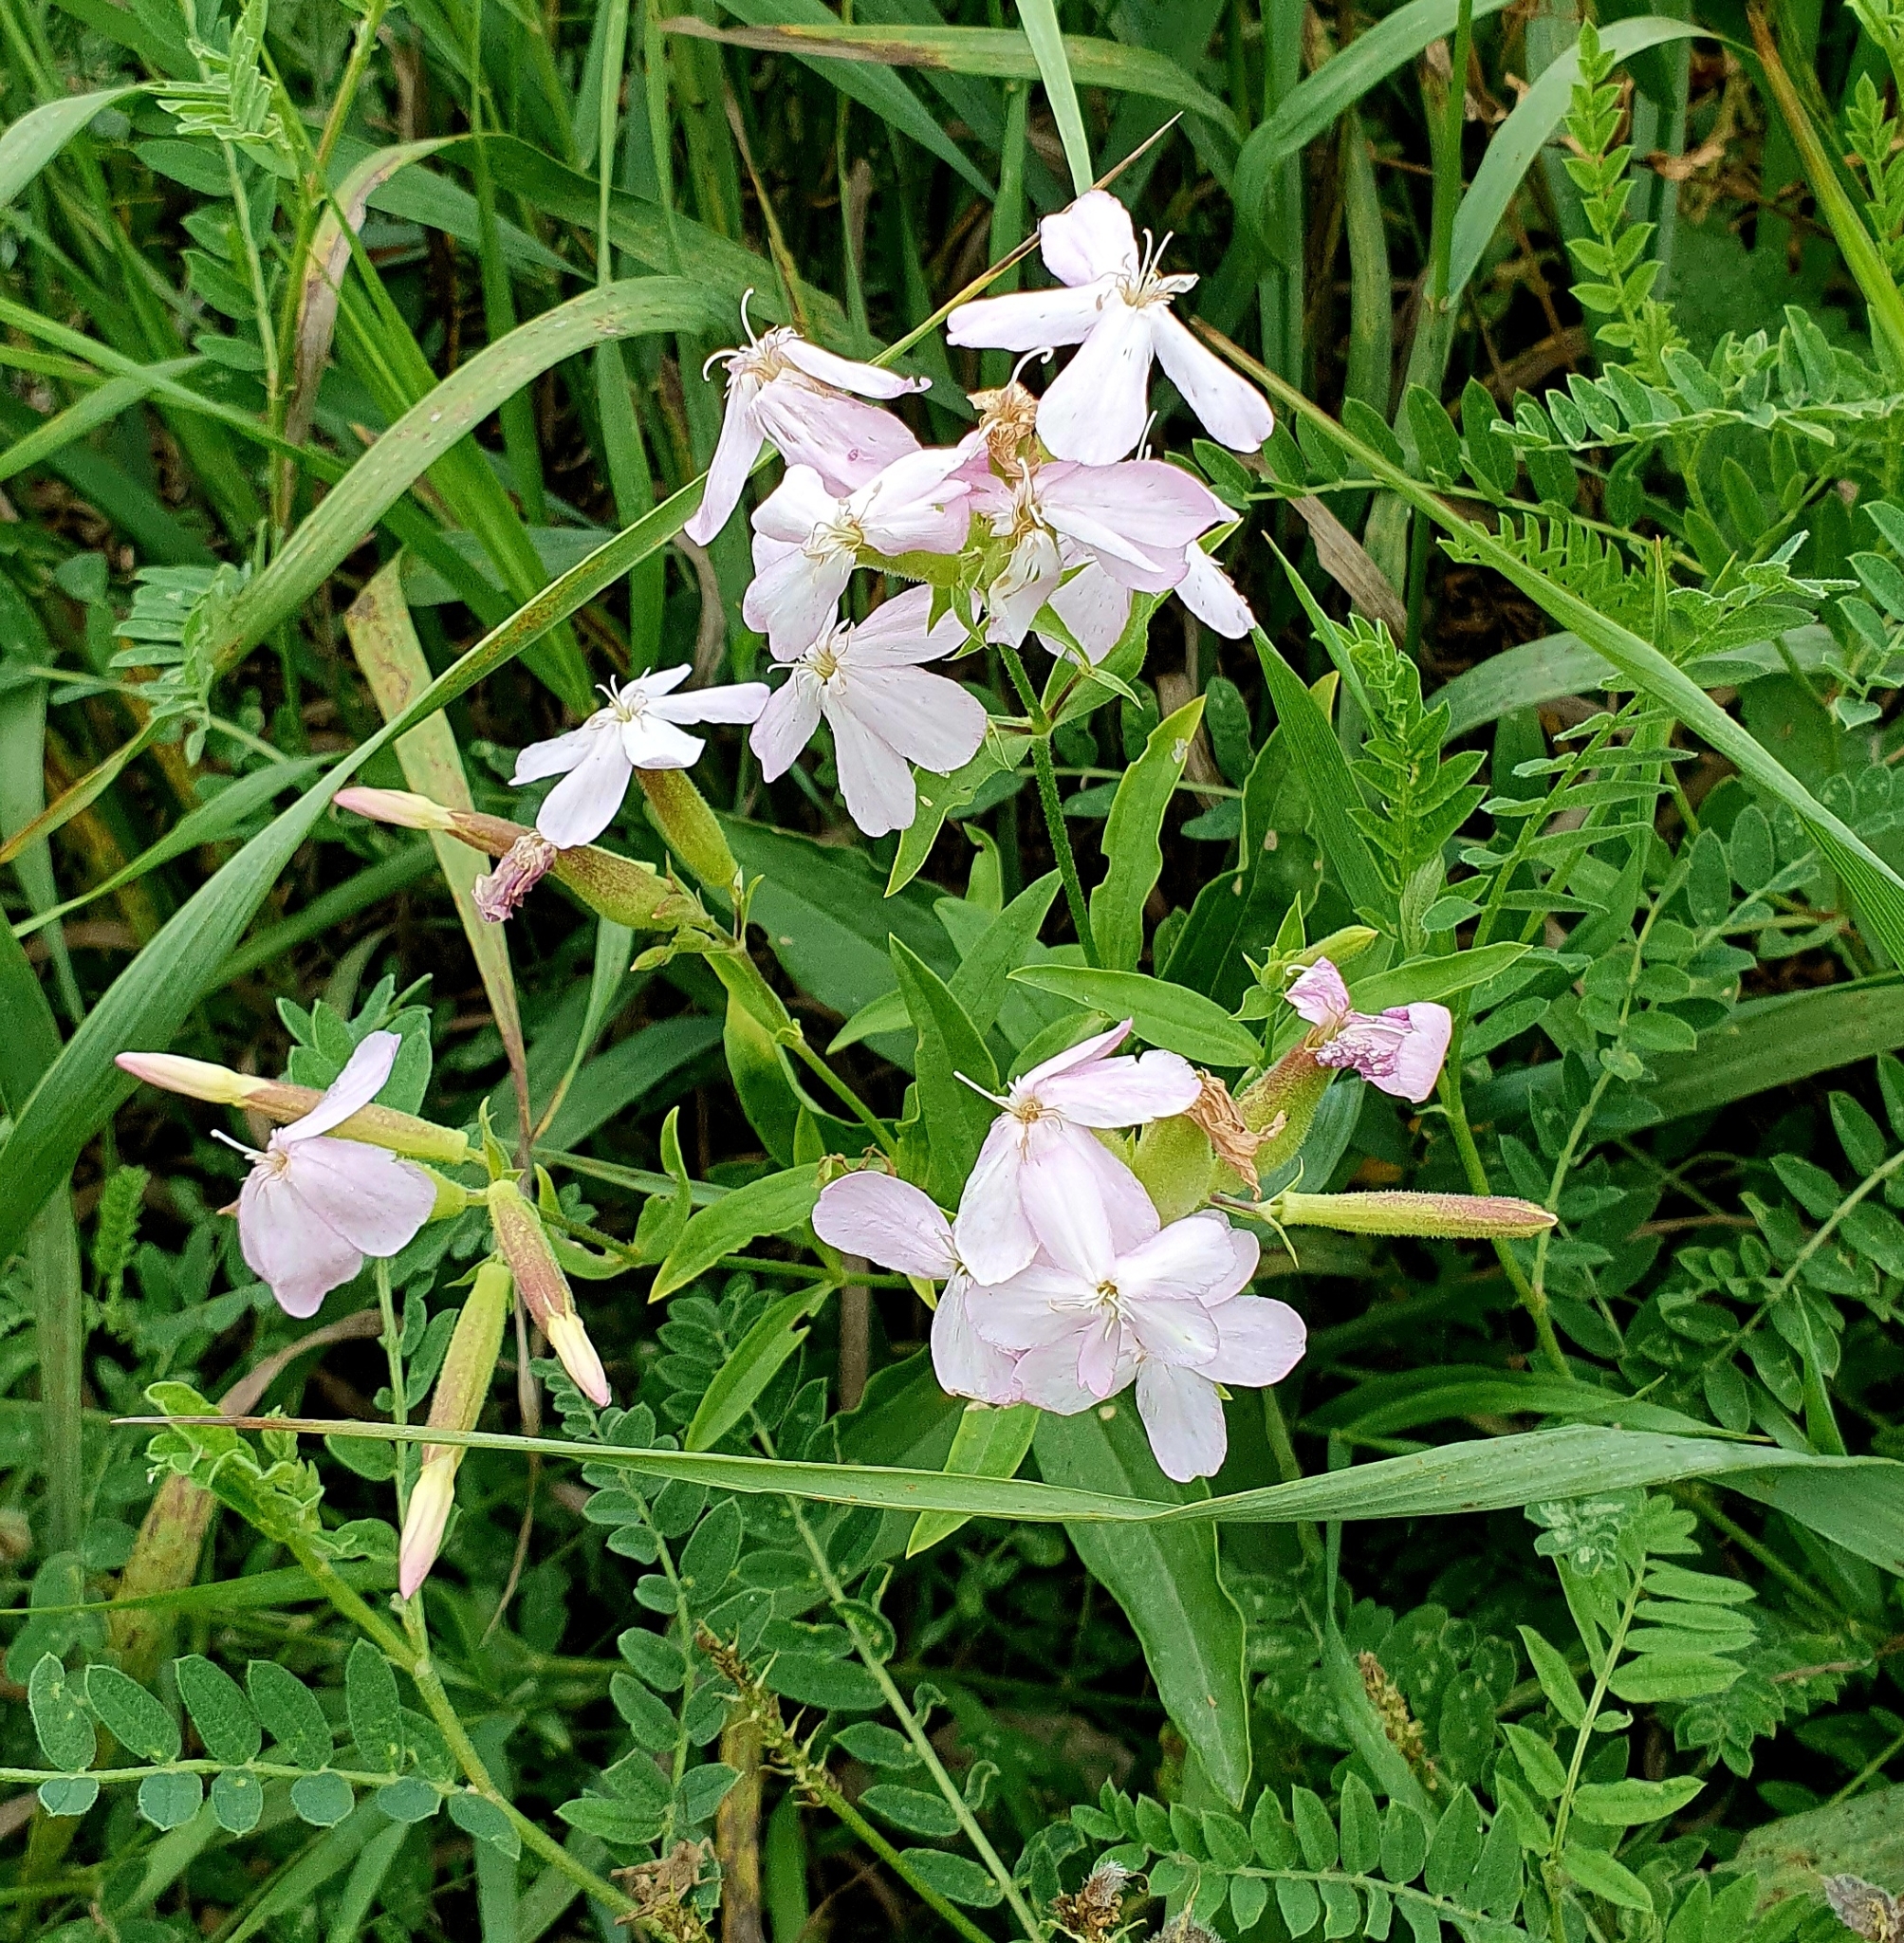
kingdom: Plantae
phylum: Tracheophyta
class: Magnoliopsida
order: Caryophyllales
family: Caryophyllaceae
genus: Saponaria
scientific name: Saponaria officinalis
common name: Soapwort
